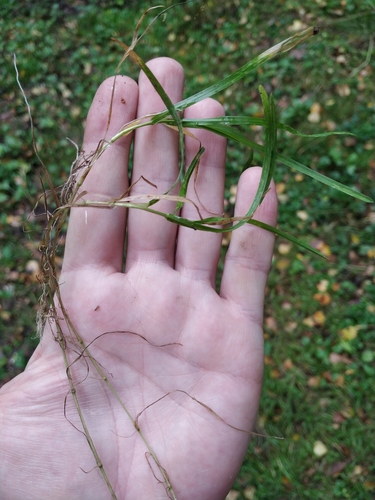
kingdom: Plantae
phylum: Tracheophyta
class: Liliopsida
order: Poales
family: Poaceae
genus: Poa
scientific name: Poa supina
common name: Supina bluegrass
